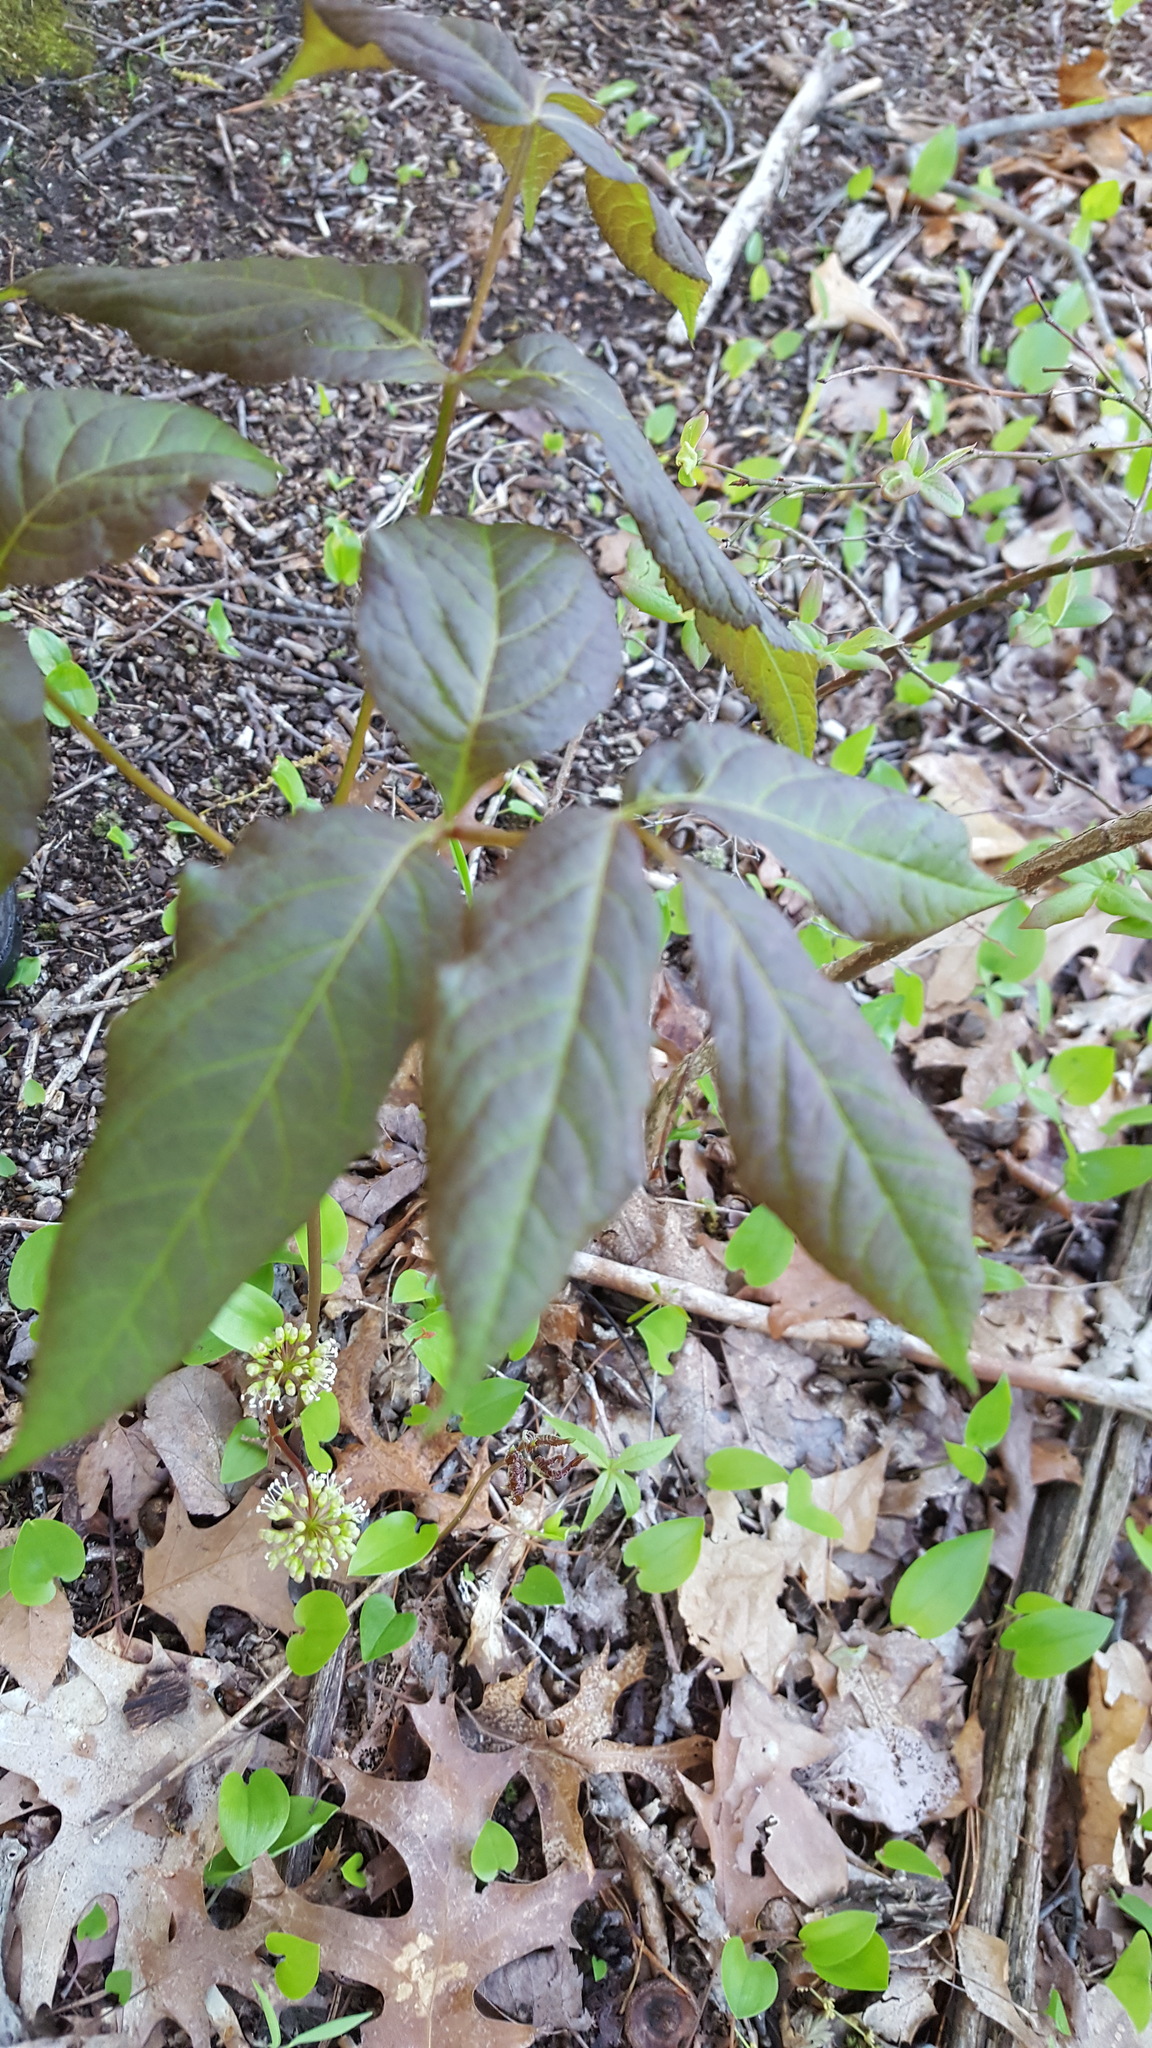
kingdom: Plantae
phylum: Tracheophyta
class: Magnoliopsida
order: Apiales
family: Araliaceae
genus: Aralia
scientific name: Aralia nudicaulis
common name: Wild sarsaparilla
